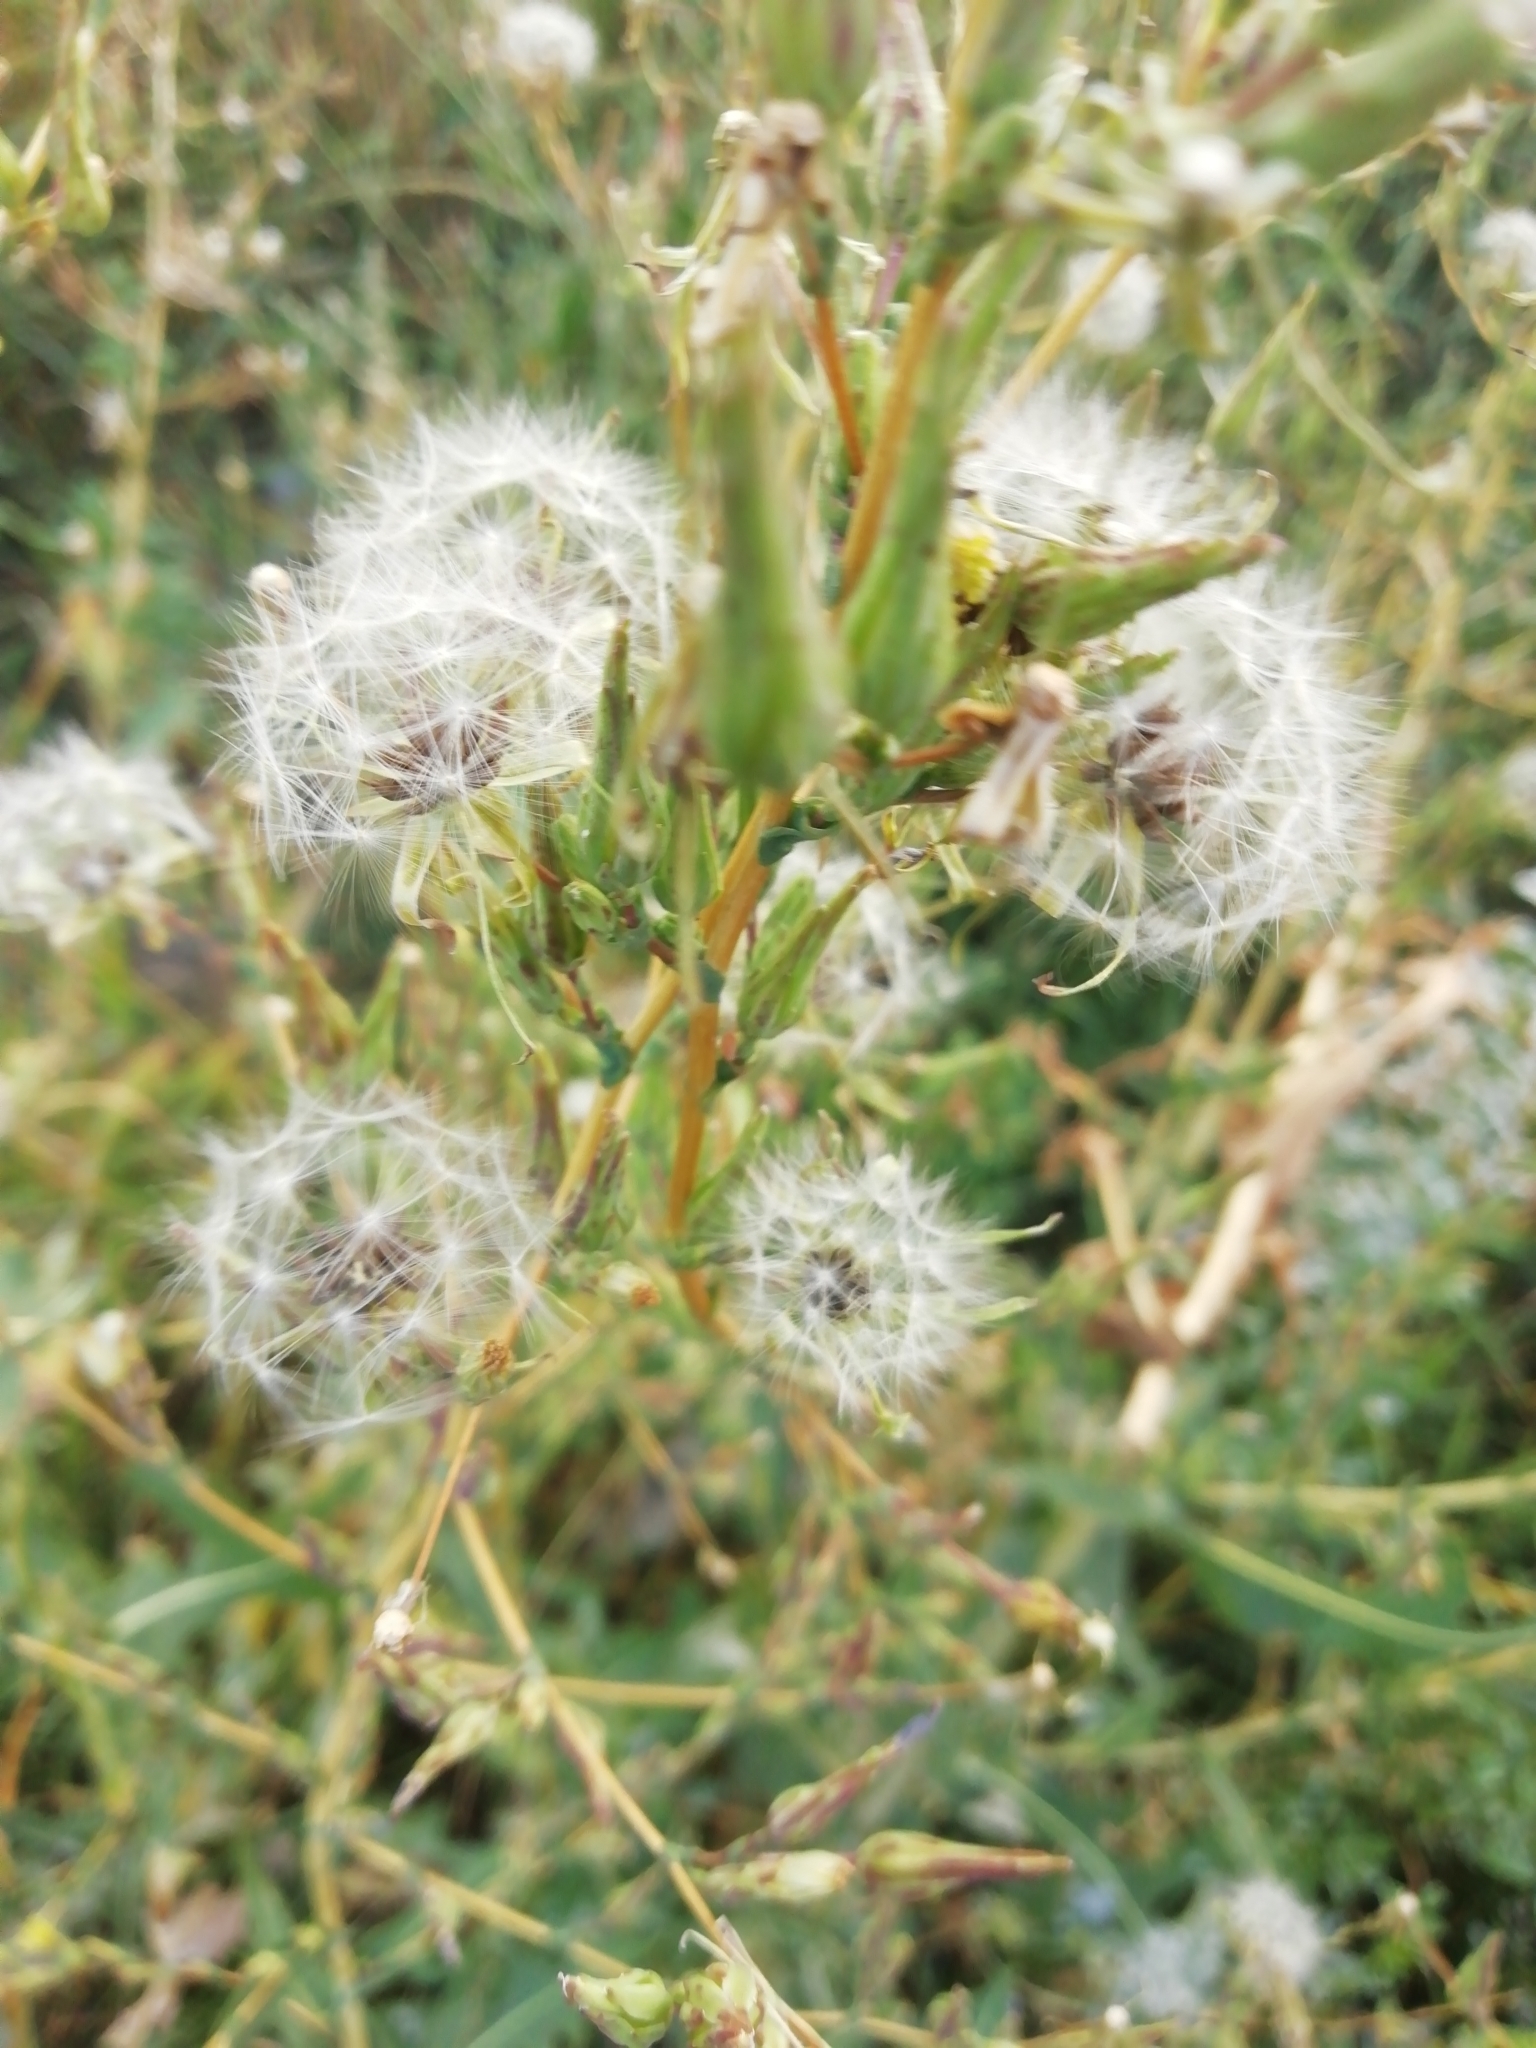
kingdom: Plantae
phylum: Tracheophyta
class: Magnoliopsida
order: Asterales
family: Asteraceae
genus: Lactuca
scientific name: Lactuca serriola
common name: Prickly lettuce
